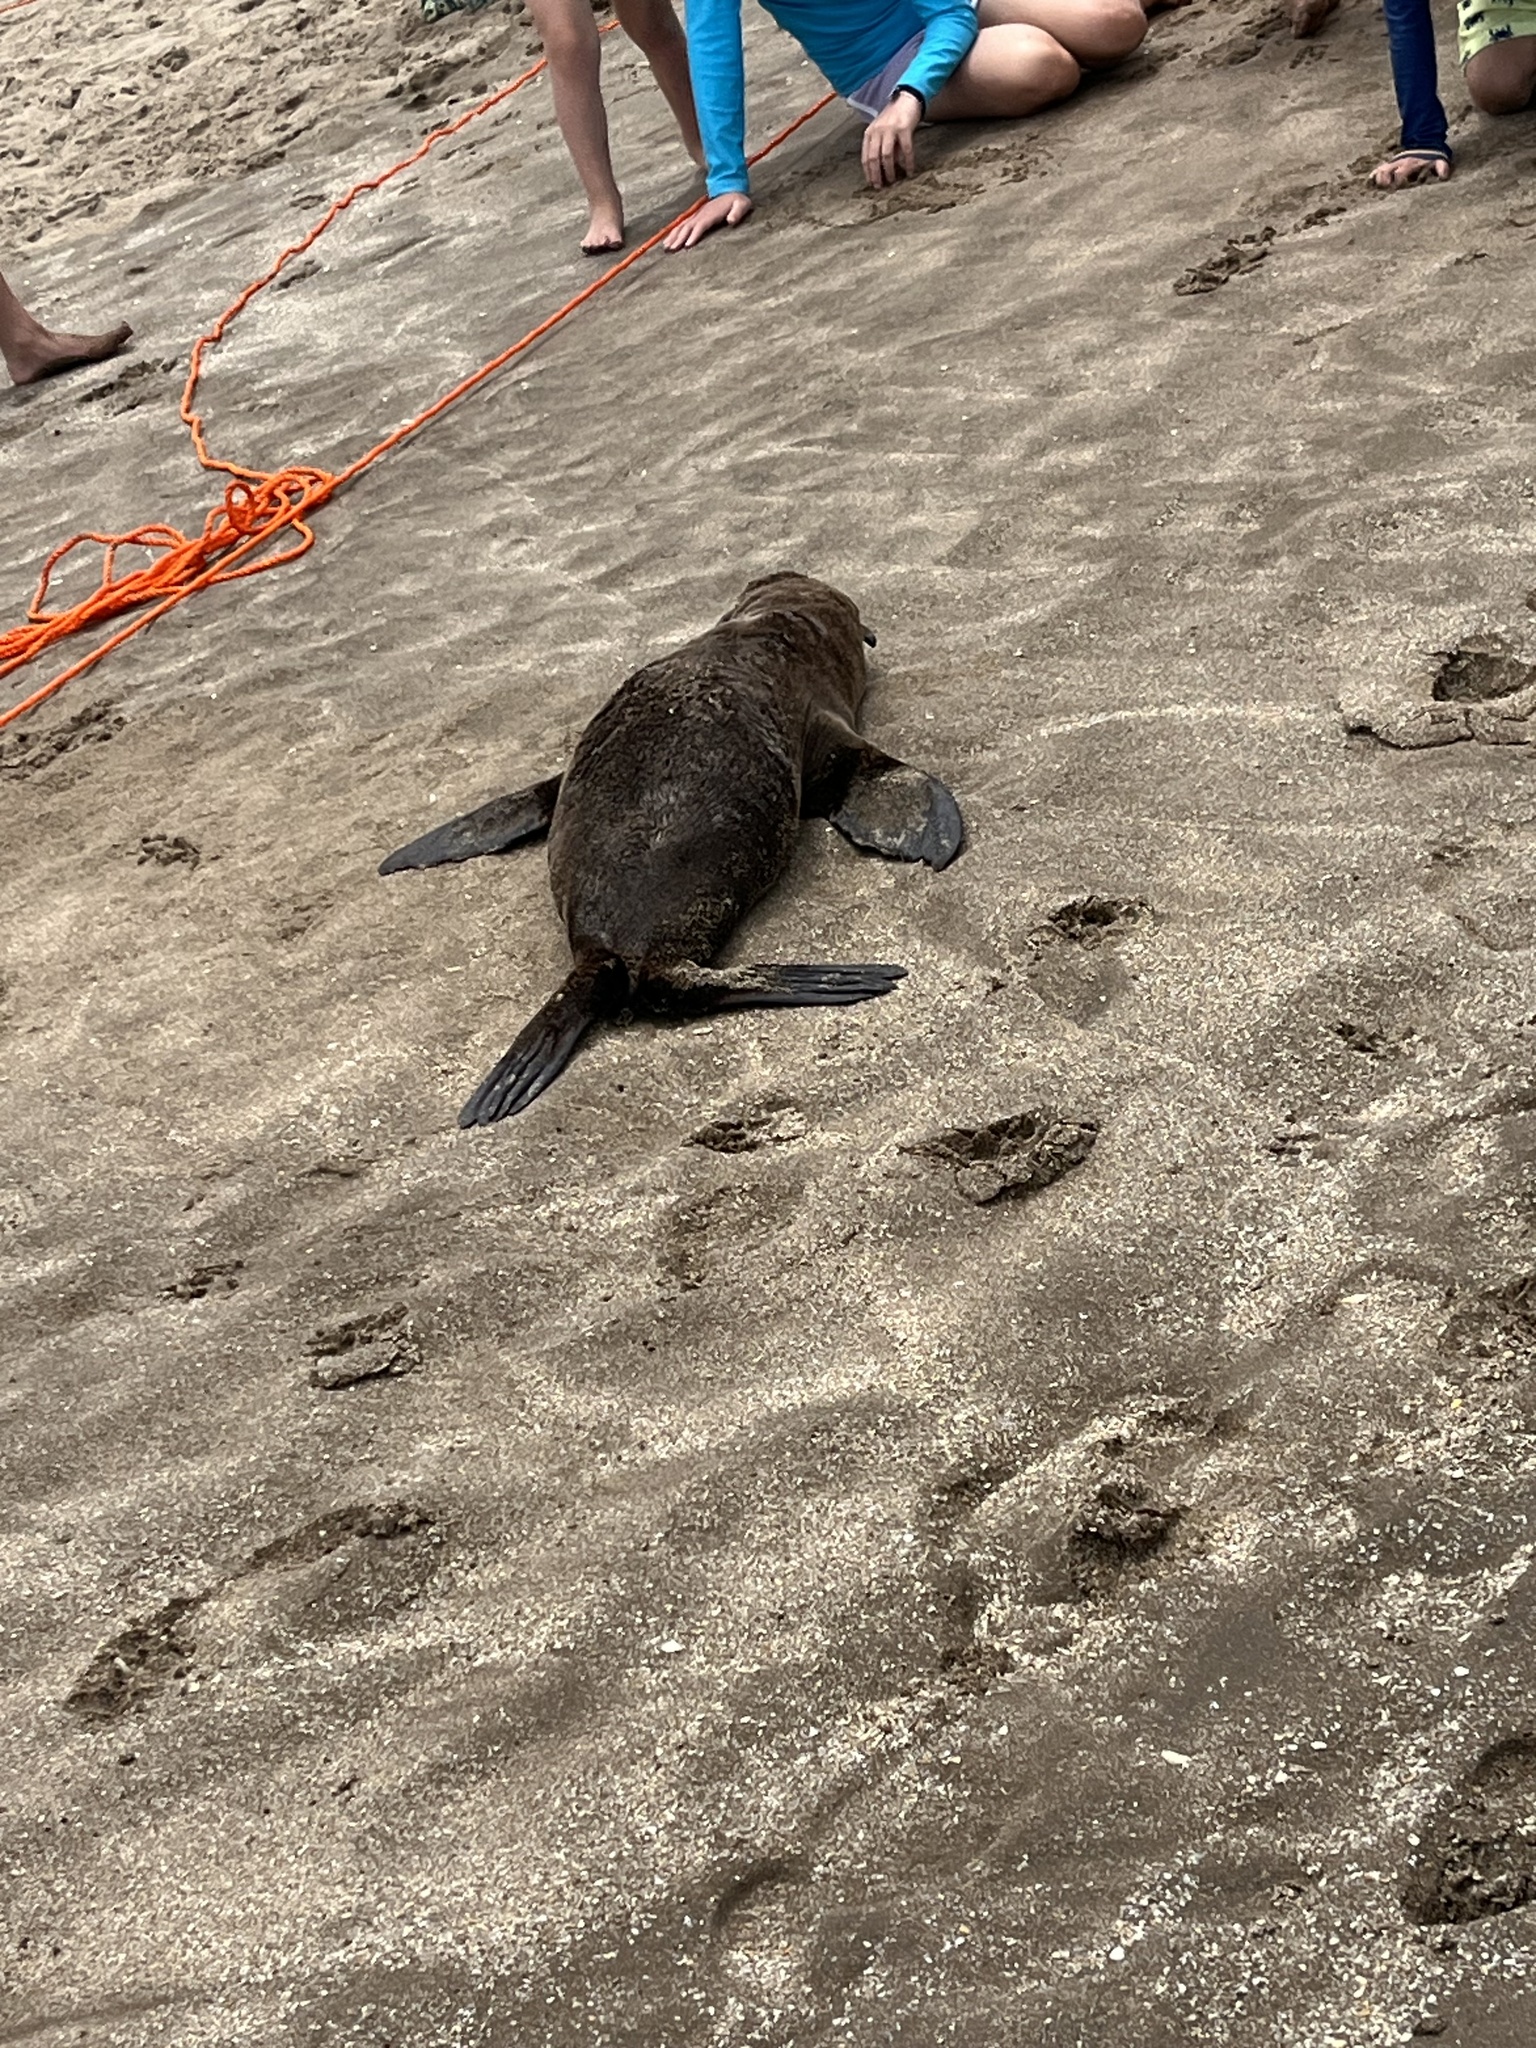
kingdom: Animalia
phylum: Chordata
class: Mammalia
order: Carnivora
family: Otariidae
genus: Arctocephalus
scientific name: Arctocephalus australis
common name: South american fur seal
